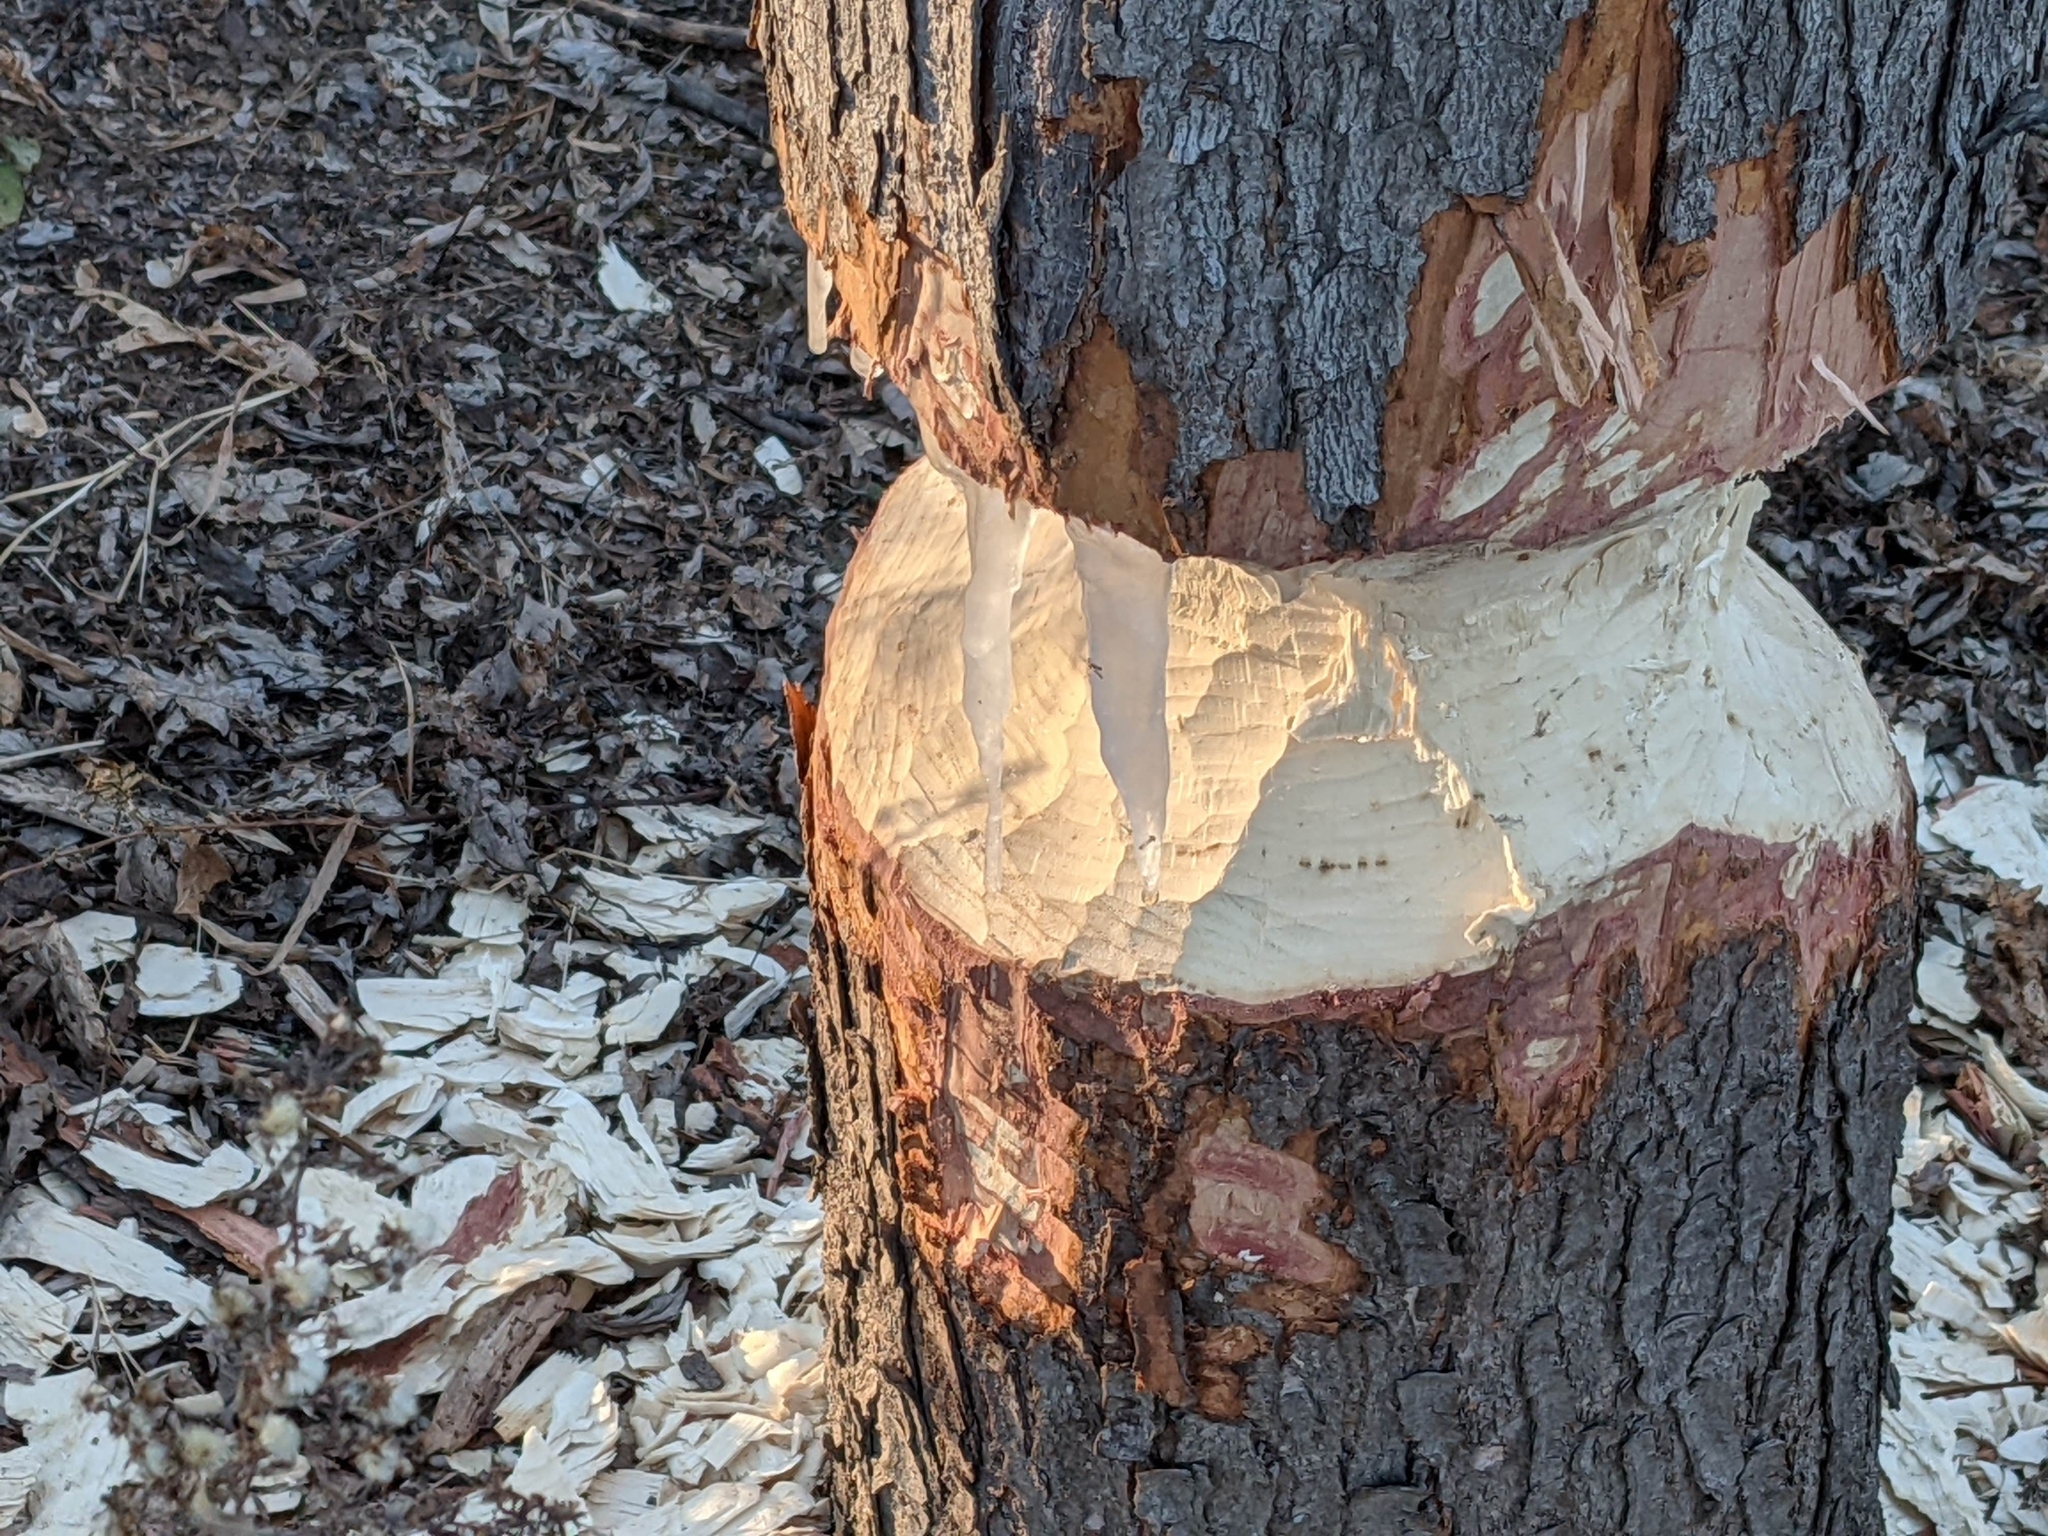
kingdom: Animalia
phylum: Chordata
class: Mammalia
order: Rodentia
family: Castoridae
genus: Castor
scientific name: Castor canadensis
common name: American beaver
